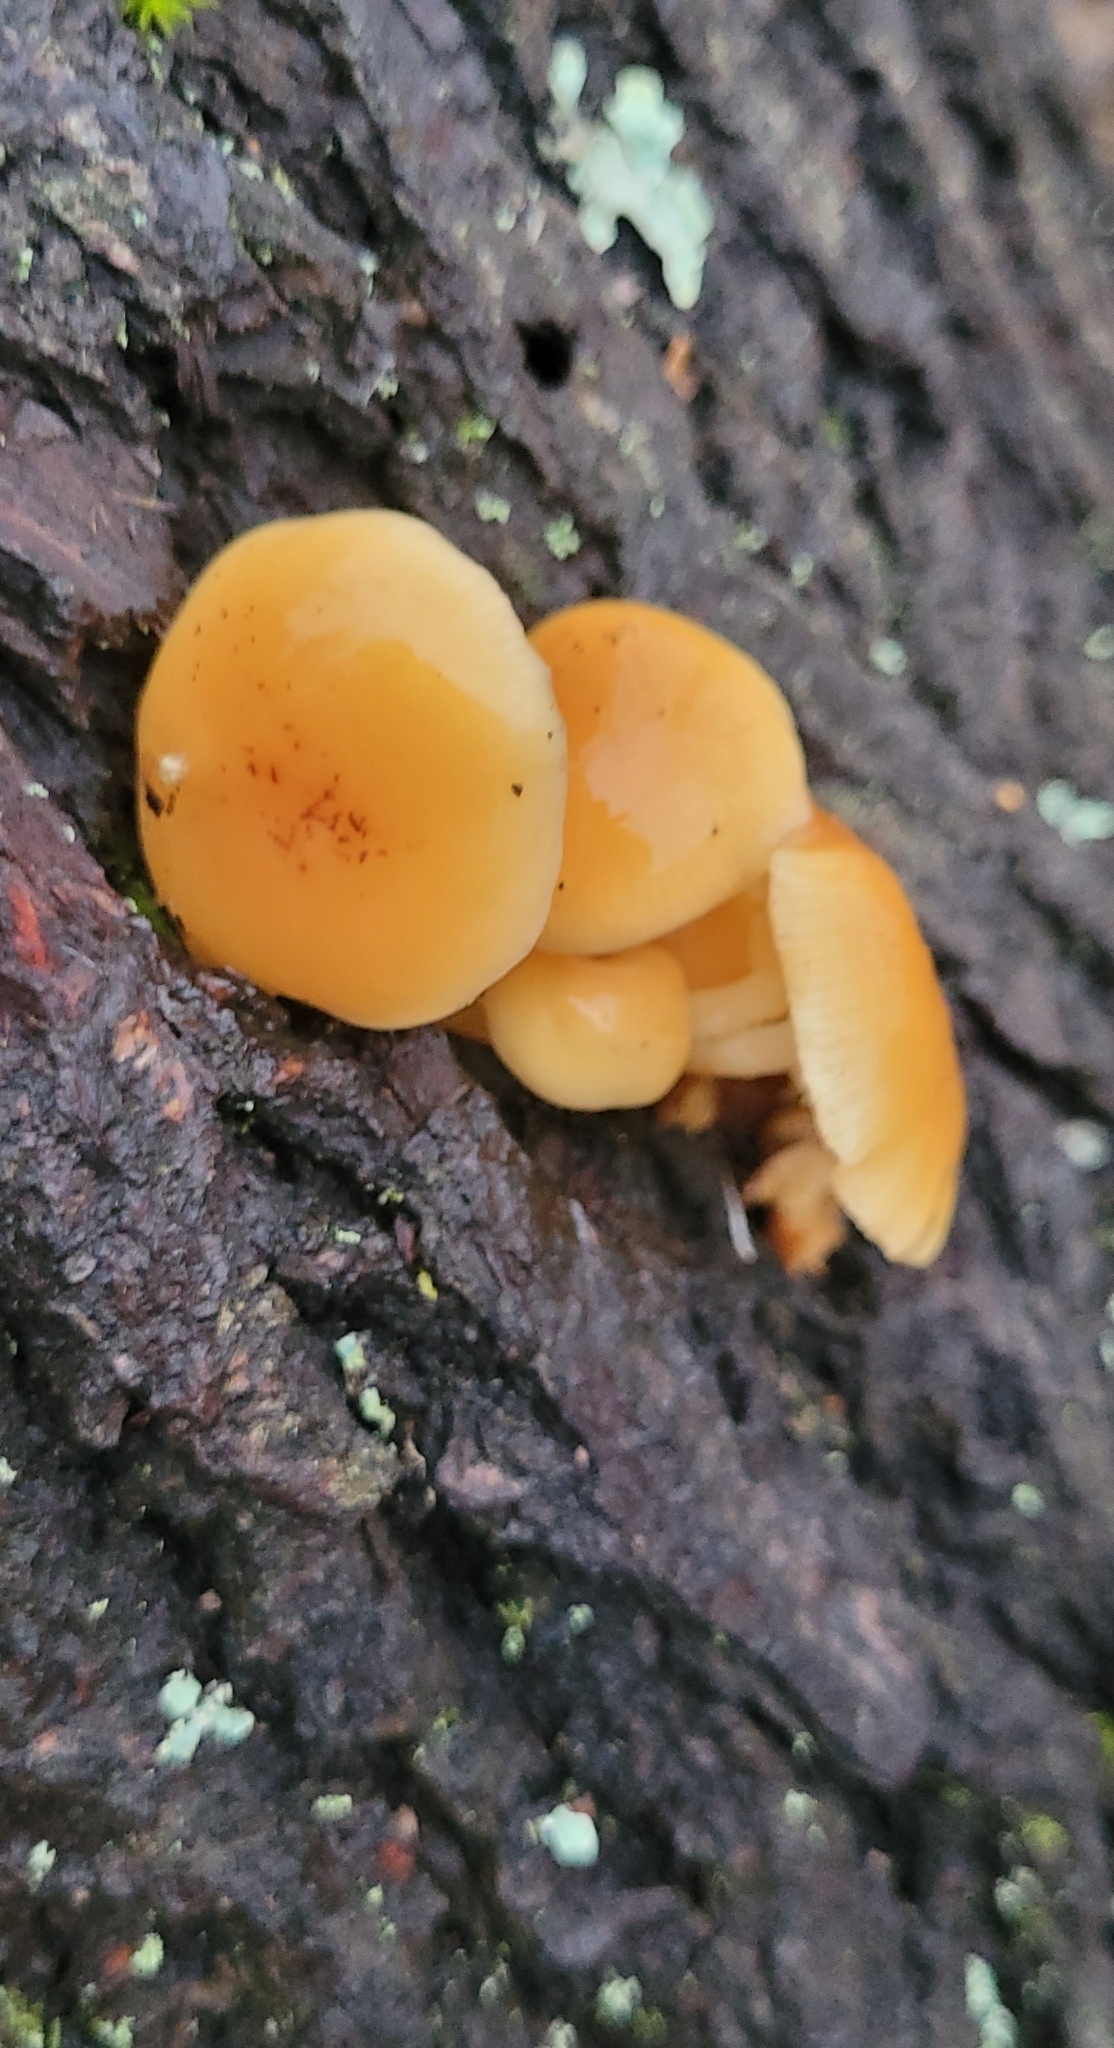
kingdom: Fungi
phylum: Basidiomycota
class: Agaricomycetes
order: Agaricales
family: Physalacriaceae
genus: Flammulina
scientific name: Flammulina
